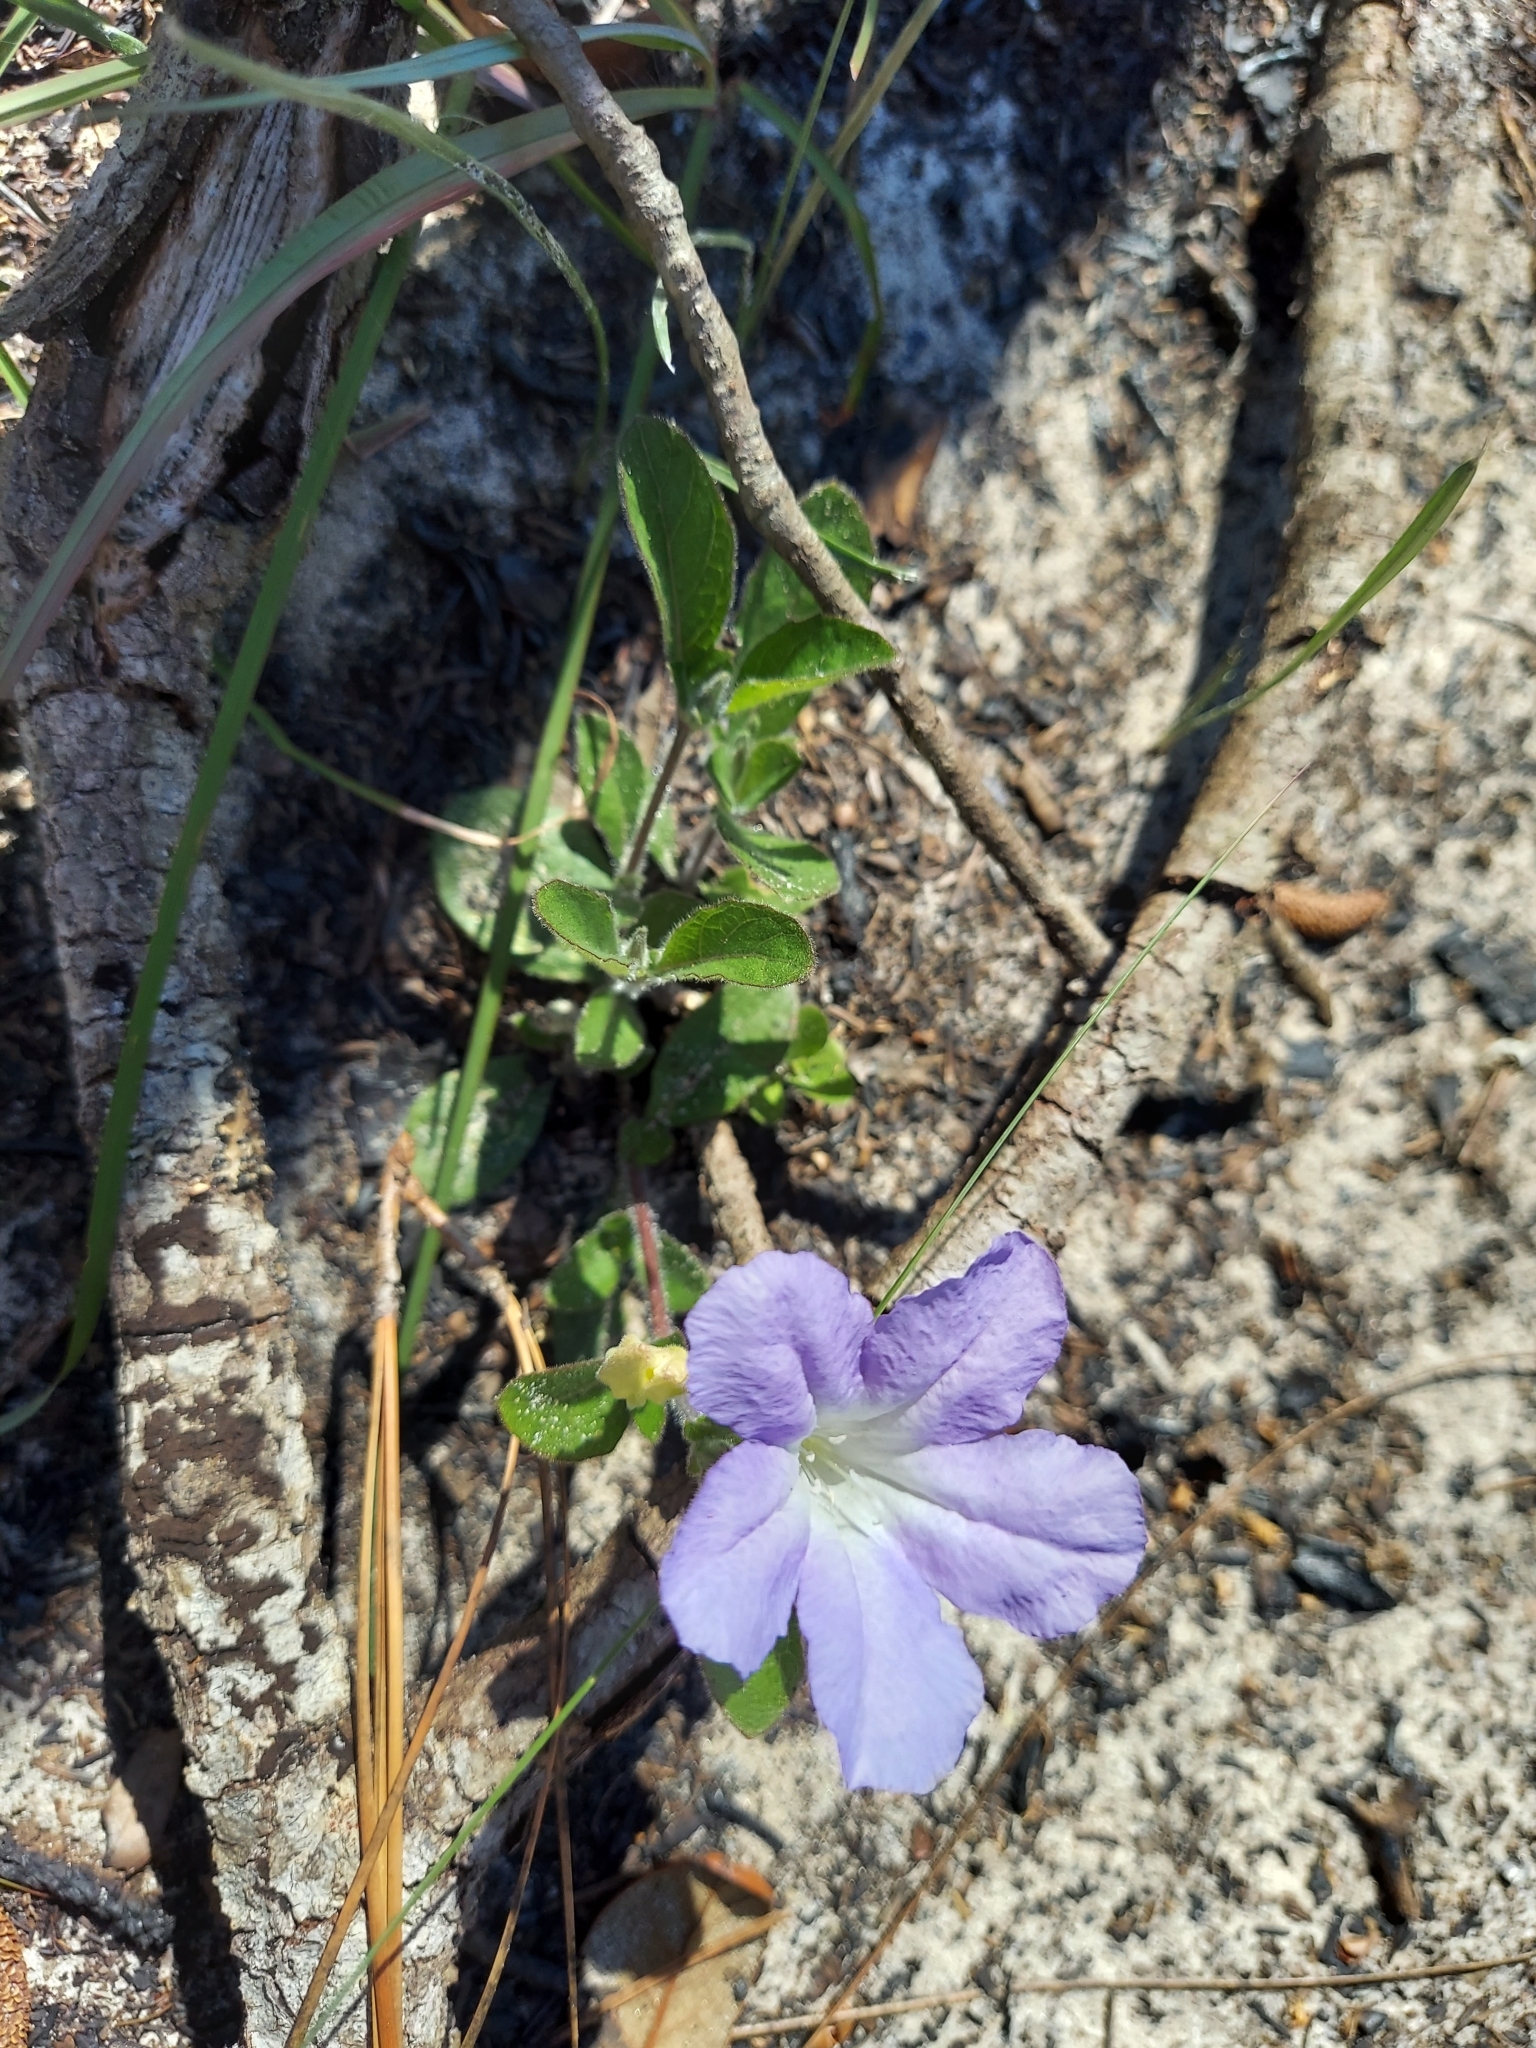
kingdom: Plantae
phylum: Tracheophyta
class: Magnoliopsida
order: Lamiales
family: Acanthaceae
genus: Ruellia
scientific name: Ruellia caroliniensis
